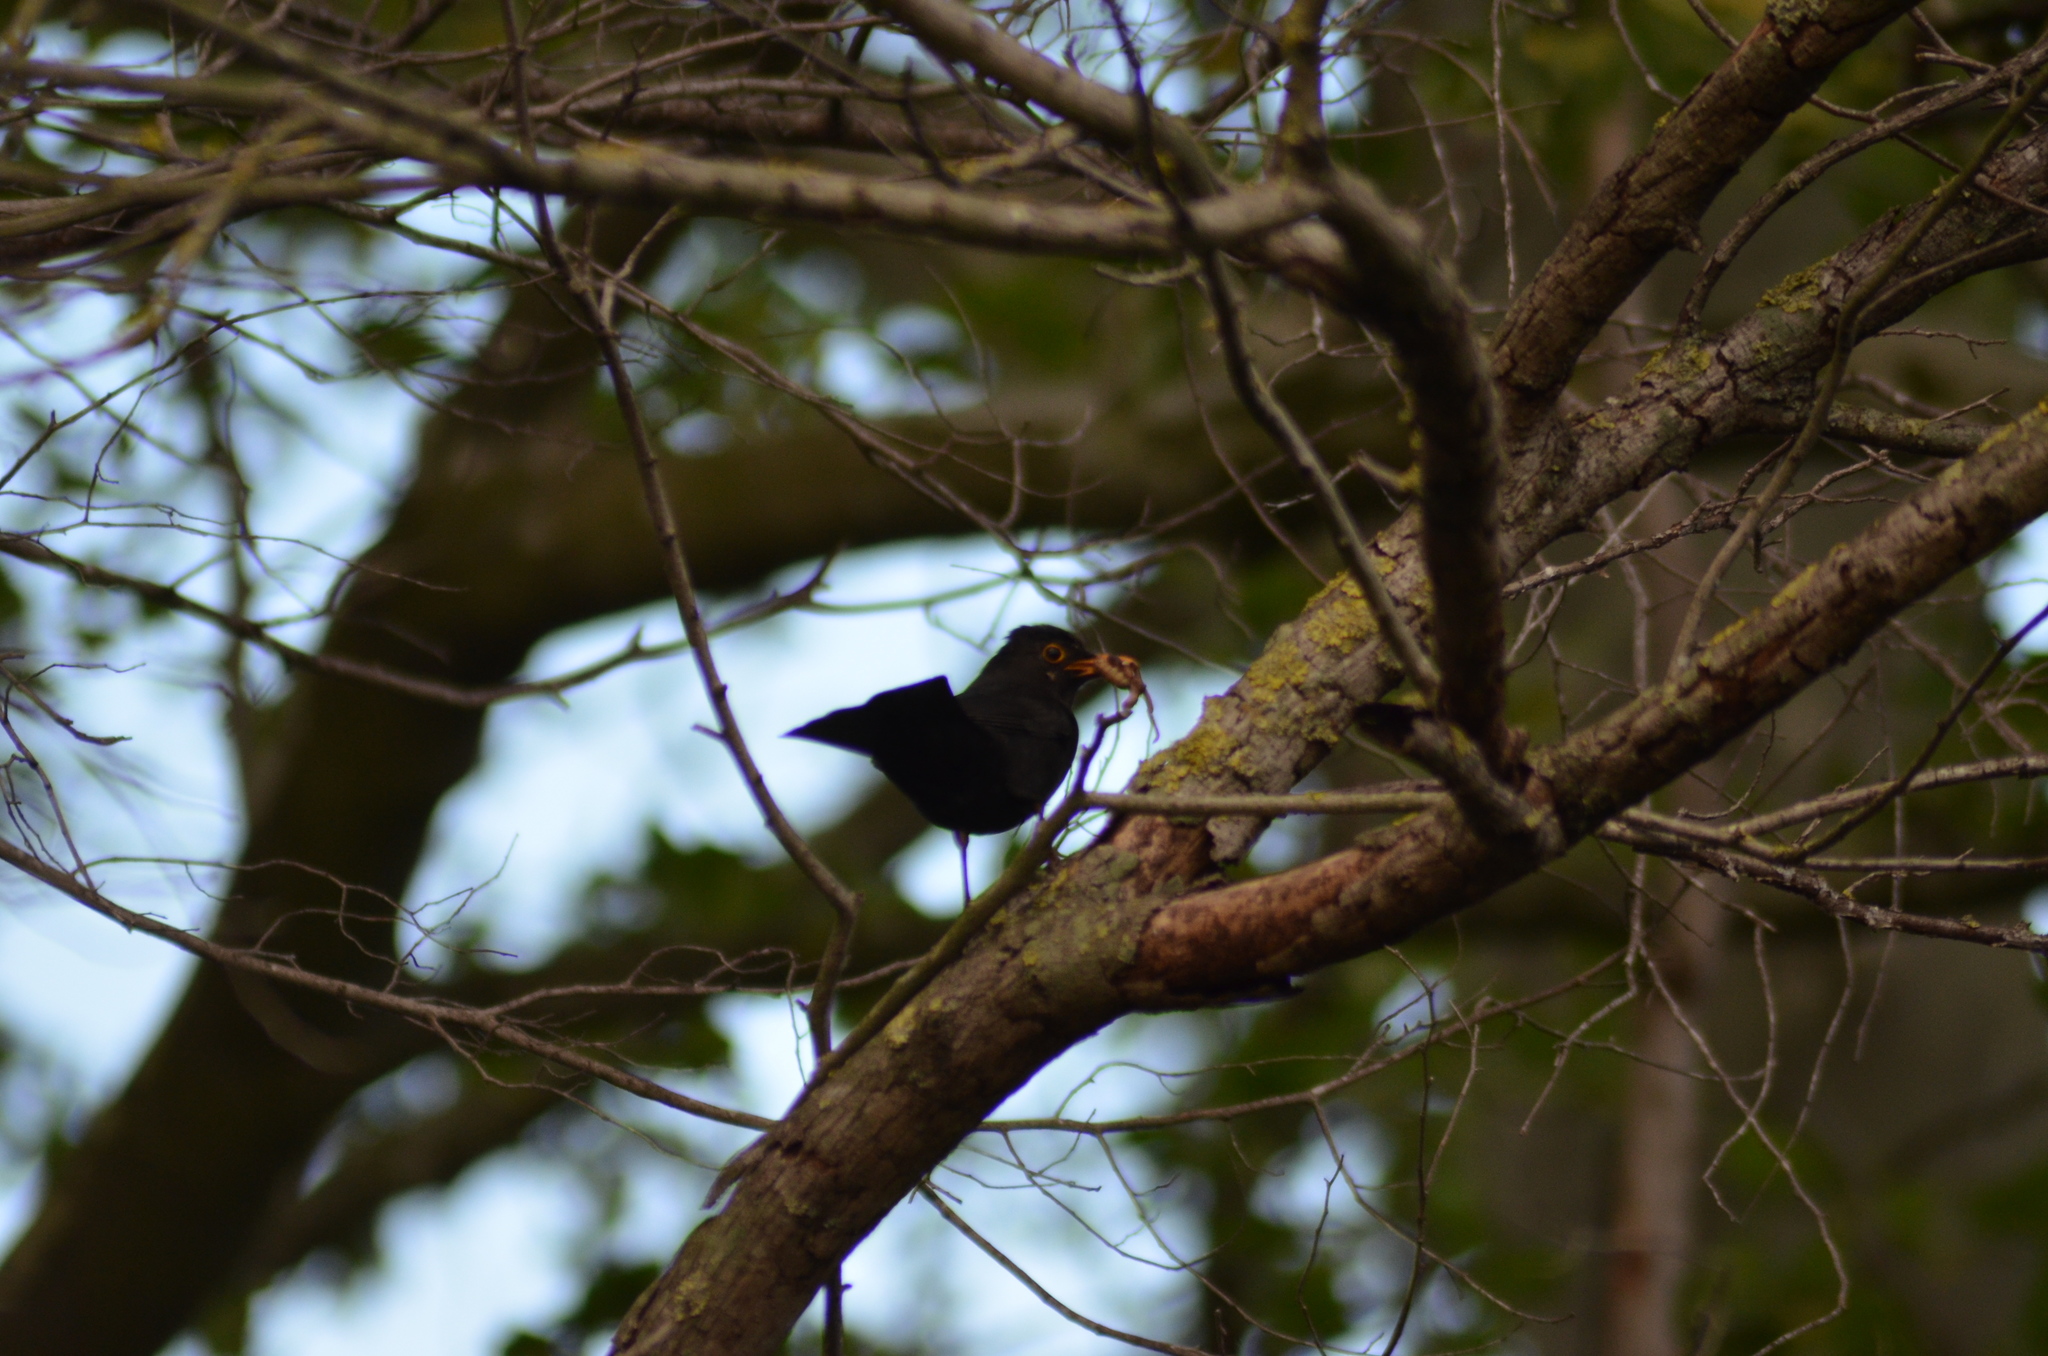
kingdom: Animalia
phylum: Chordata
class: Aves
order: Passeriformes
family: Turdidae
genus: Turdus
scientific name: Turdus merula
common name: Common blackbird
